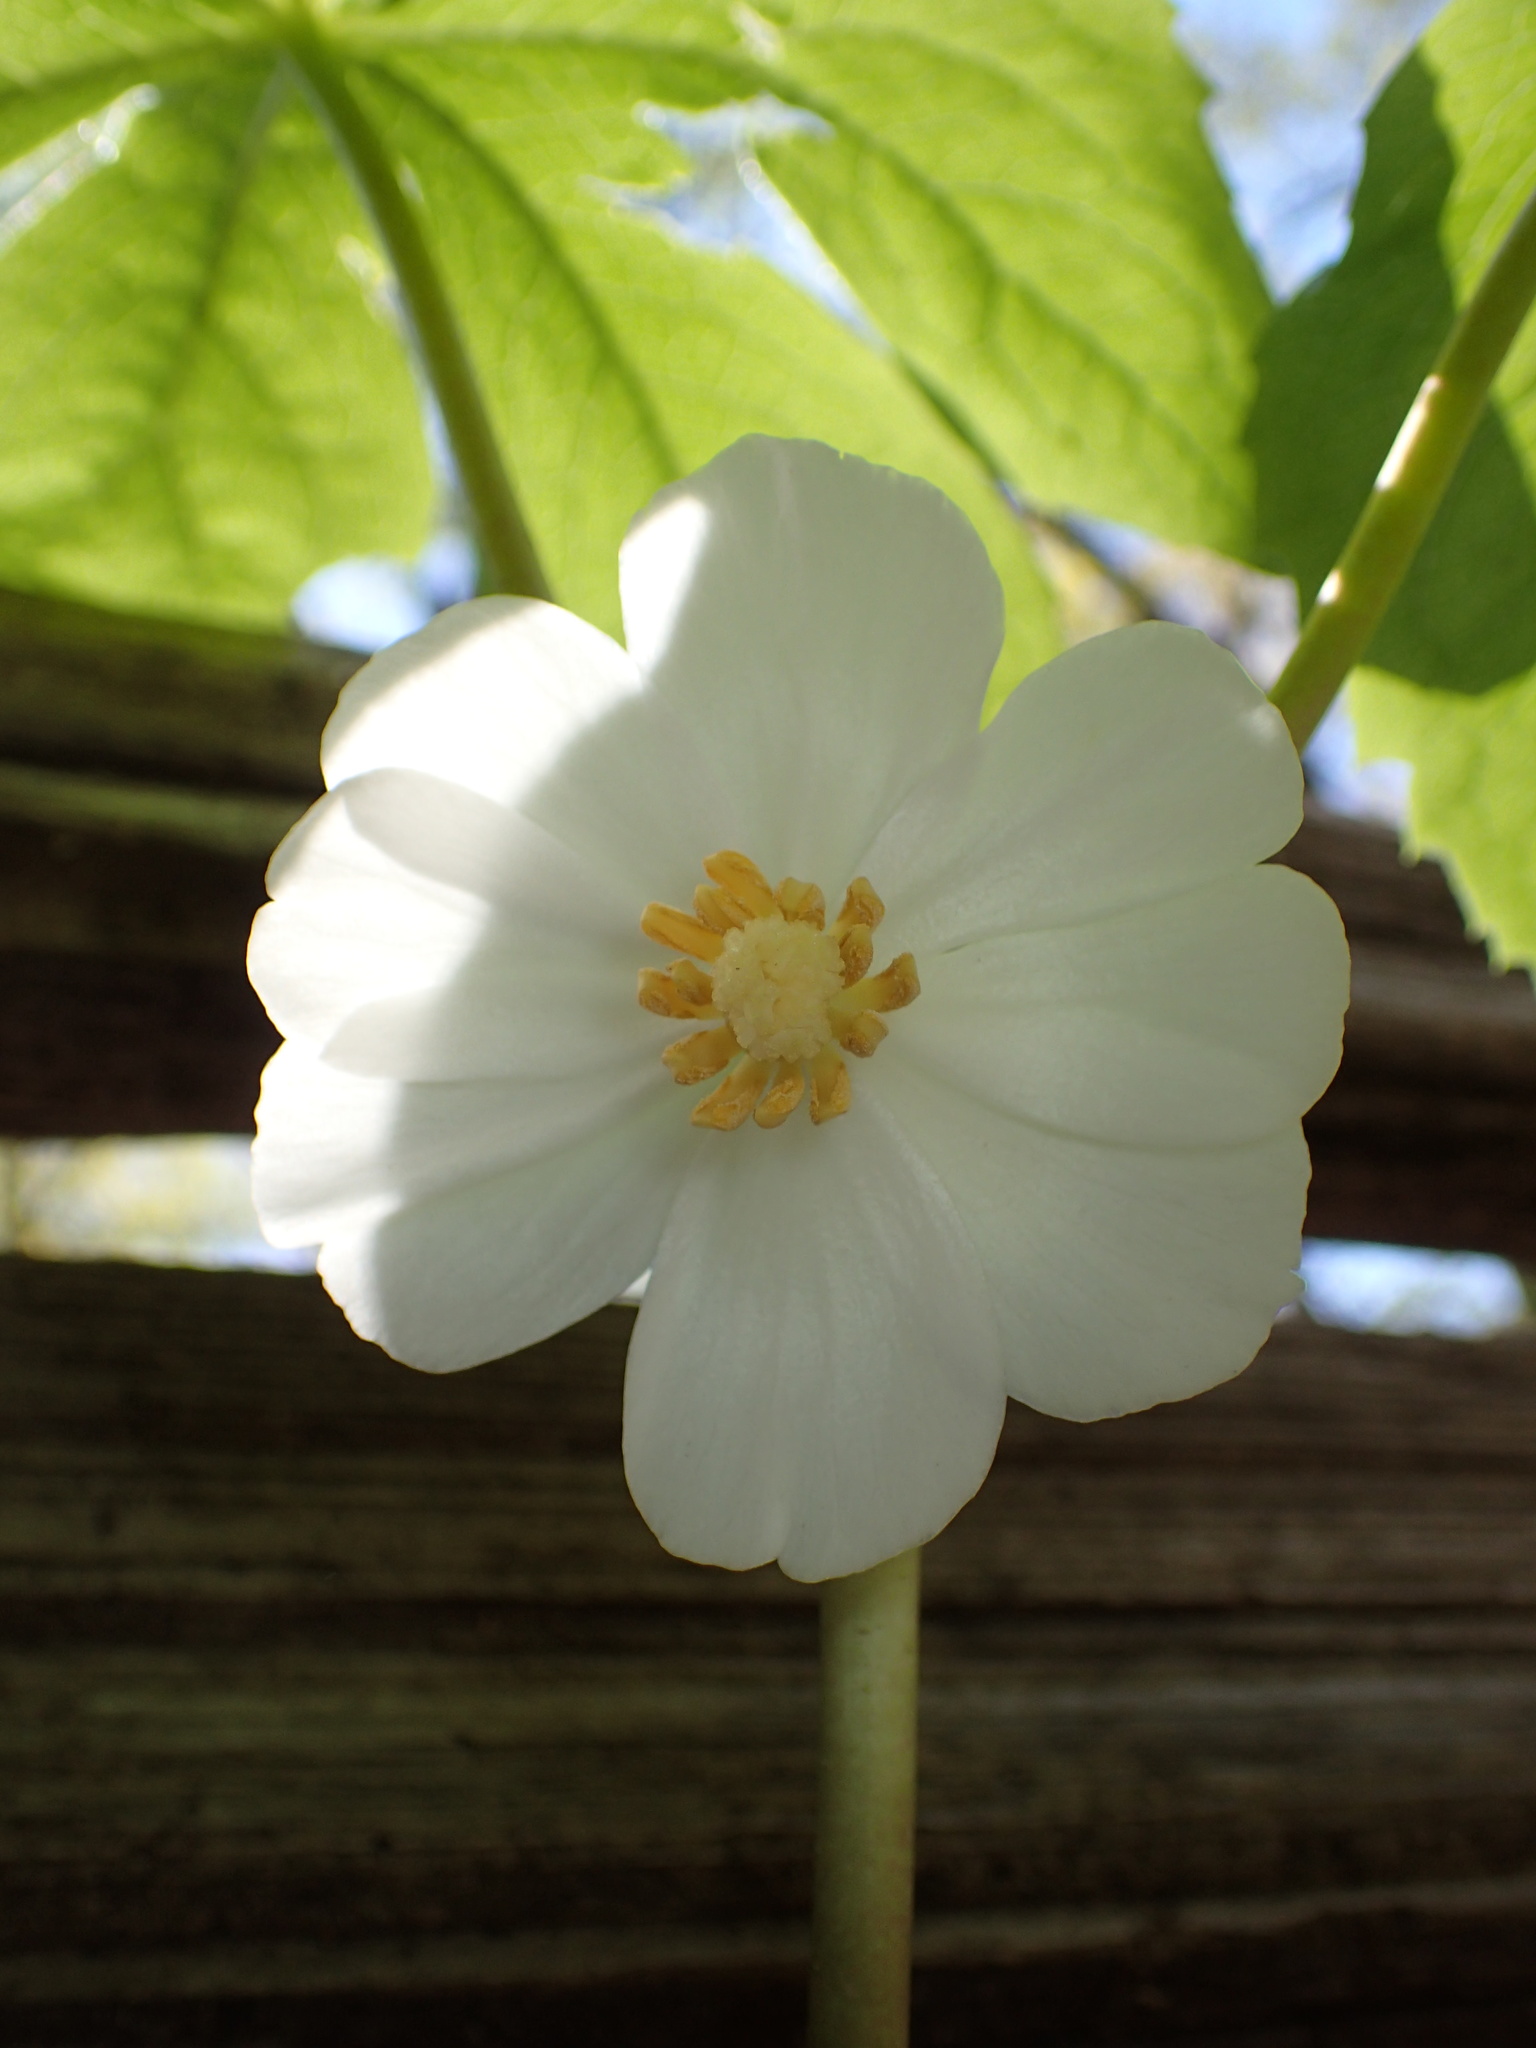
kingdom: Plantae
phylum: Tracheophyta
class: Magnoliopsida
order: Ranunculales
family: Berberidaceae
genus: Podophyllum
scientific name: Podophyllum peltatum
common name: Wild mandrake
